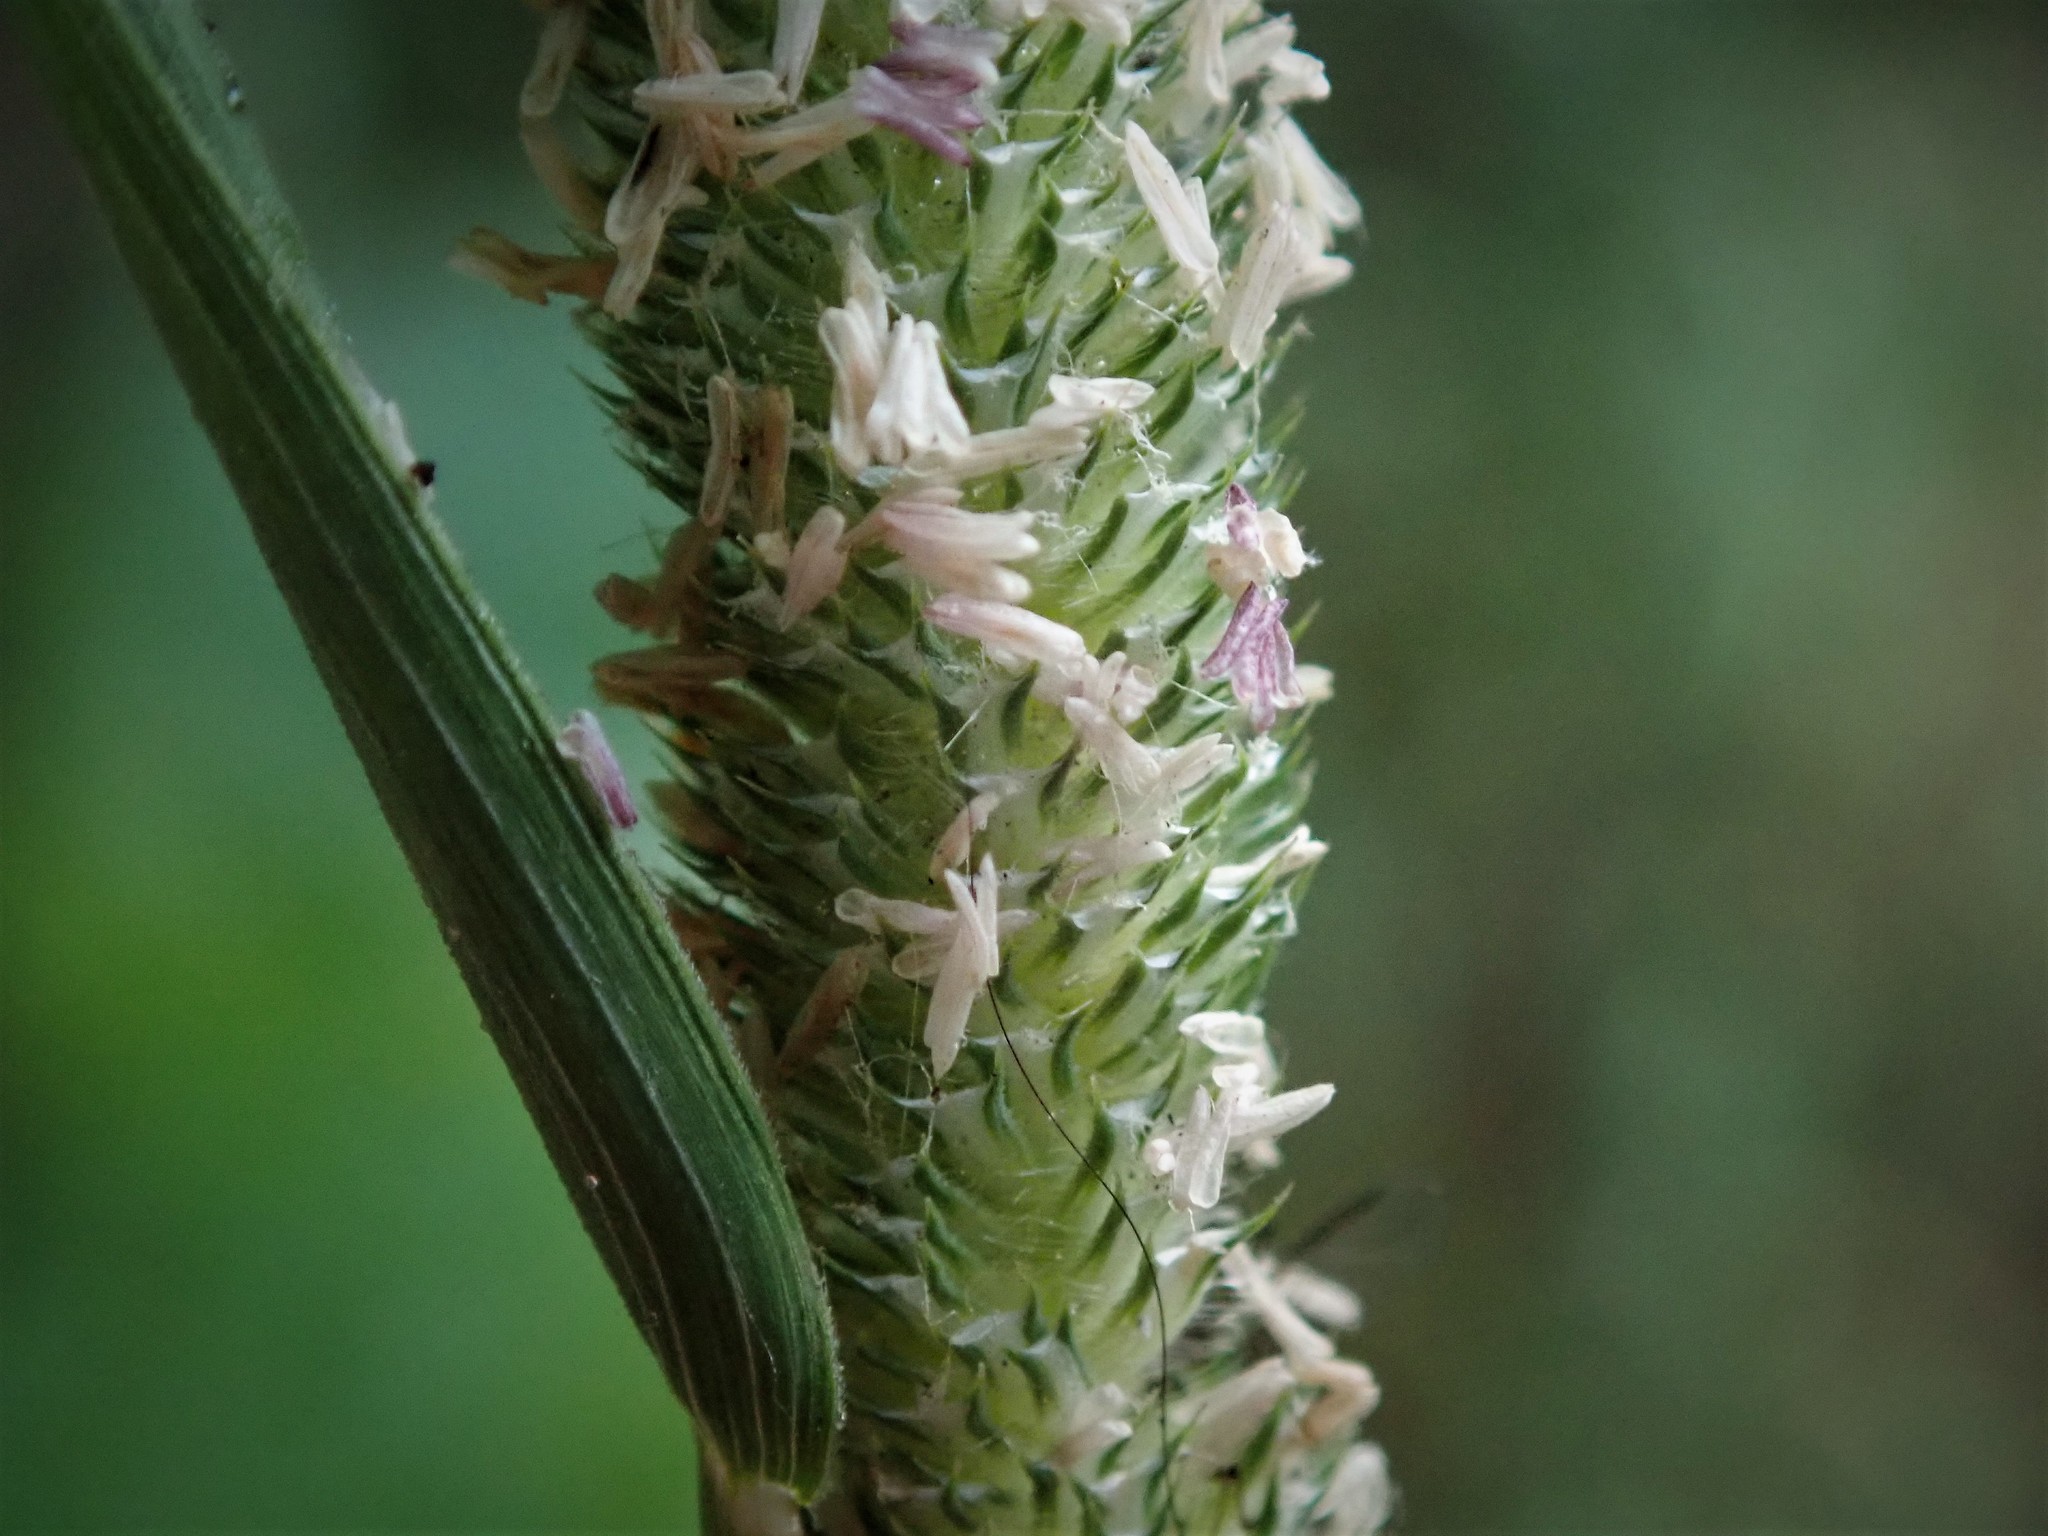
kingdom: Plantae
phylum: Tracheophyta
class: Liliopsida
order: Poales
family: Poaceae
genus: Phleum
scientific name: Phleum pratense
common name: Timothy grass
